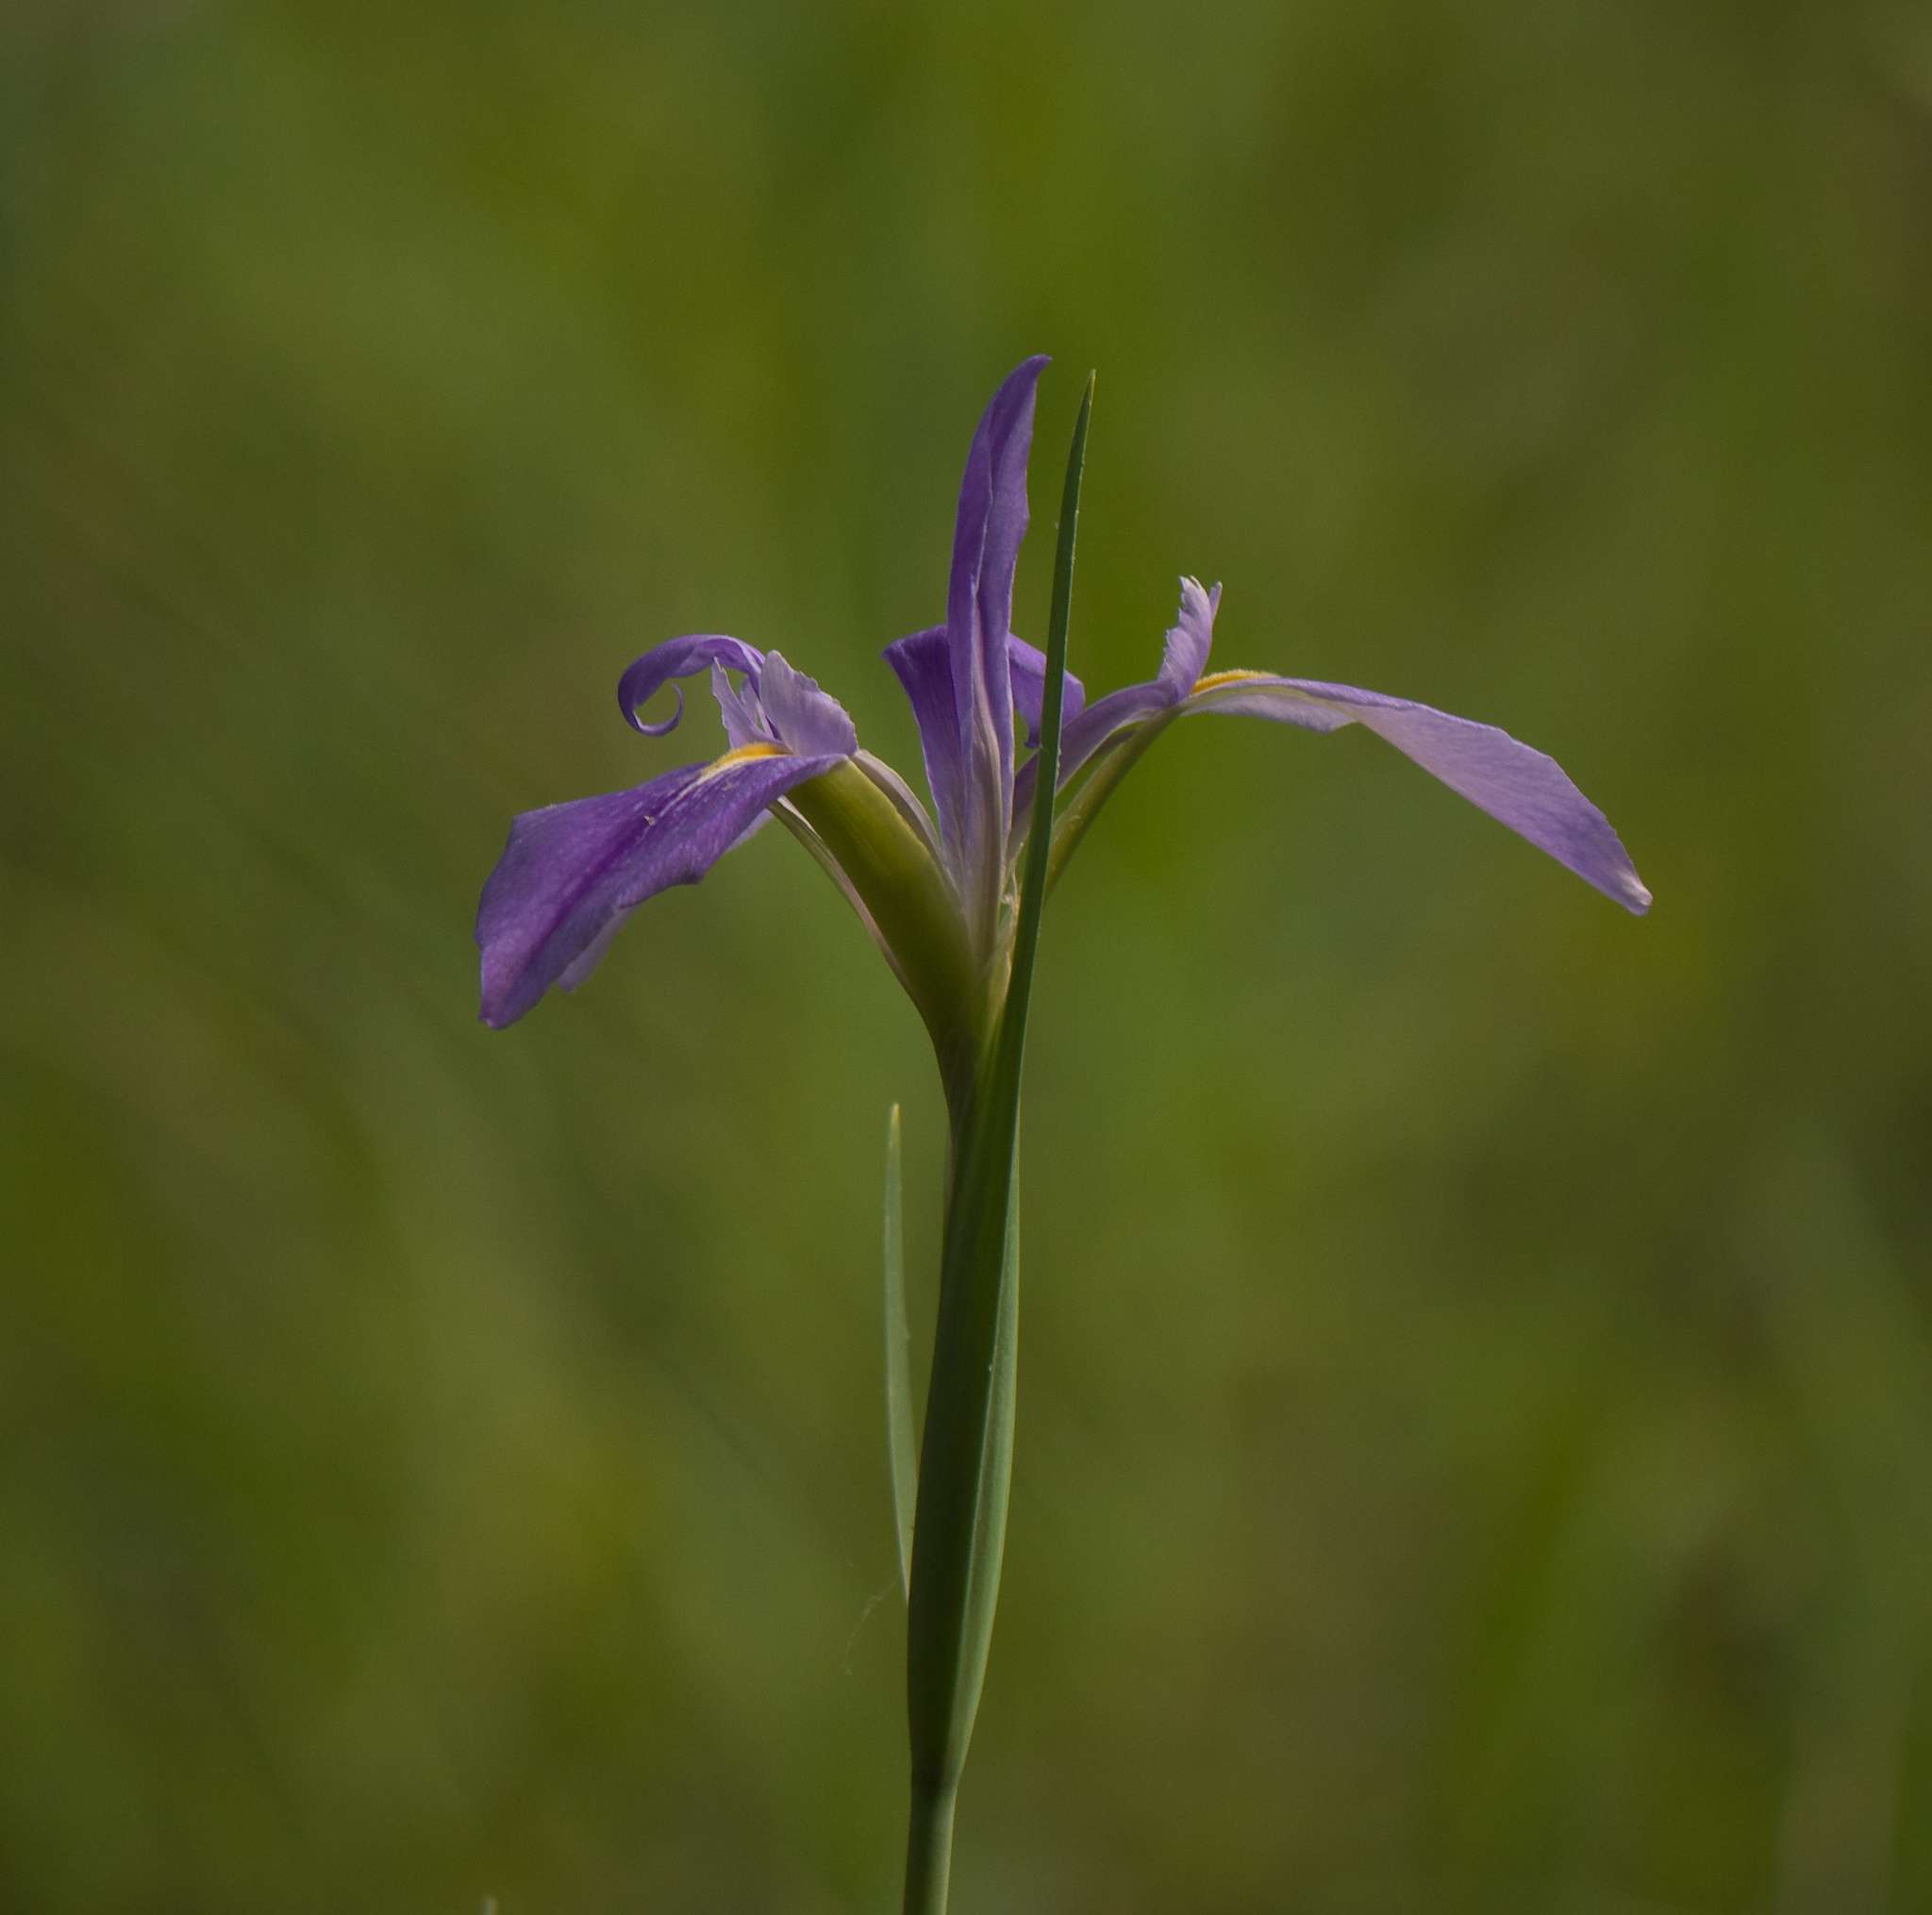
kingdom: Plantae
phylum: Tracheophyta
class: Liliopsida
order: Asparagales
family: Iridaceae
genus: Iris
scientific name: Iris savannarum
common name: Prairie iris
